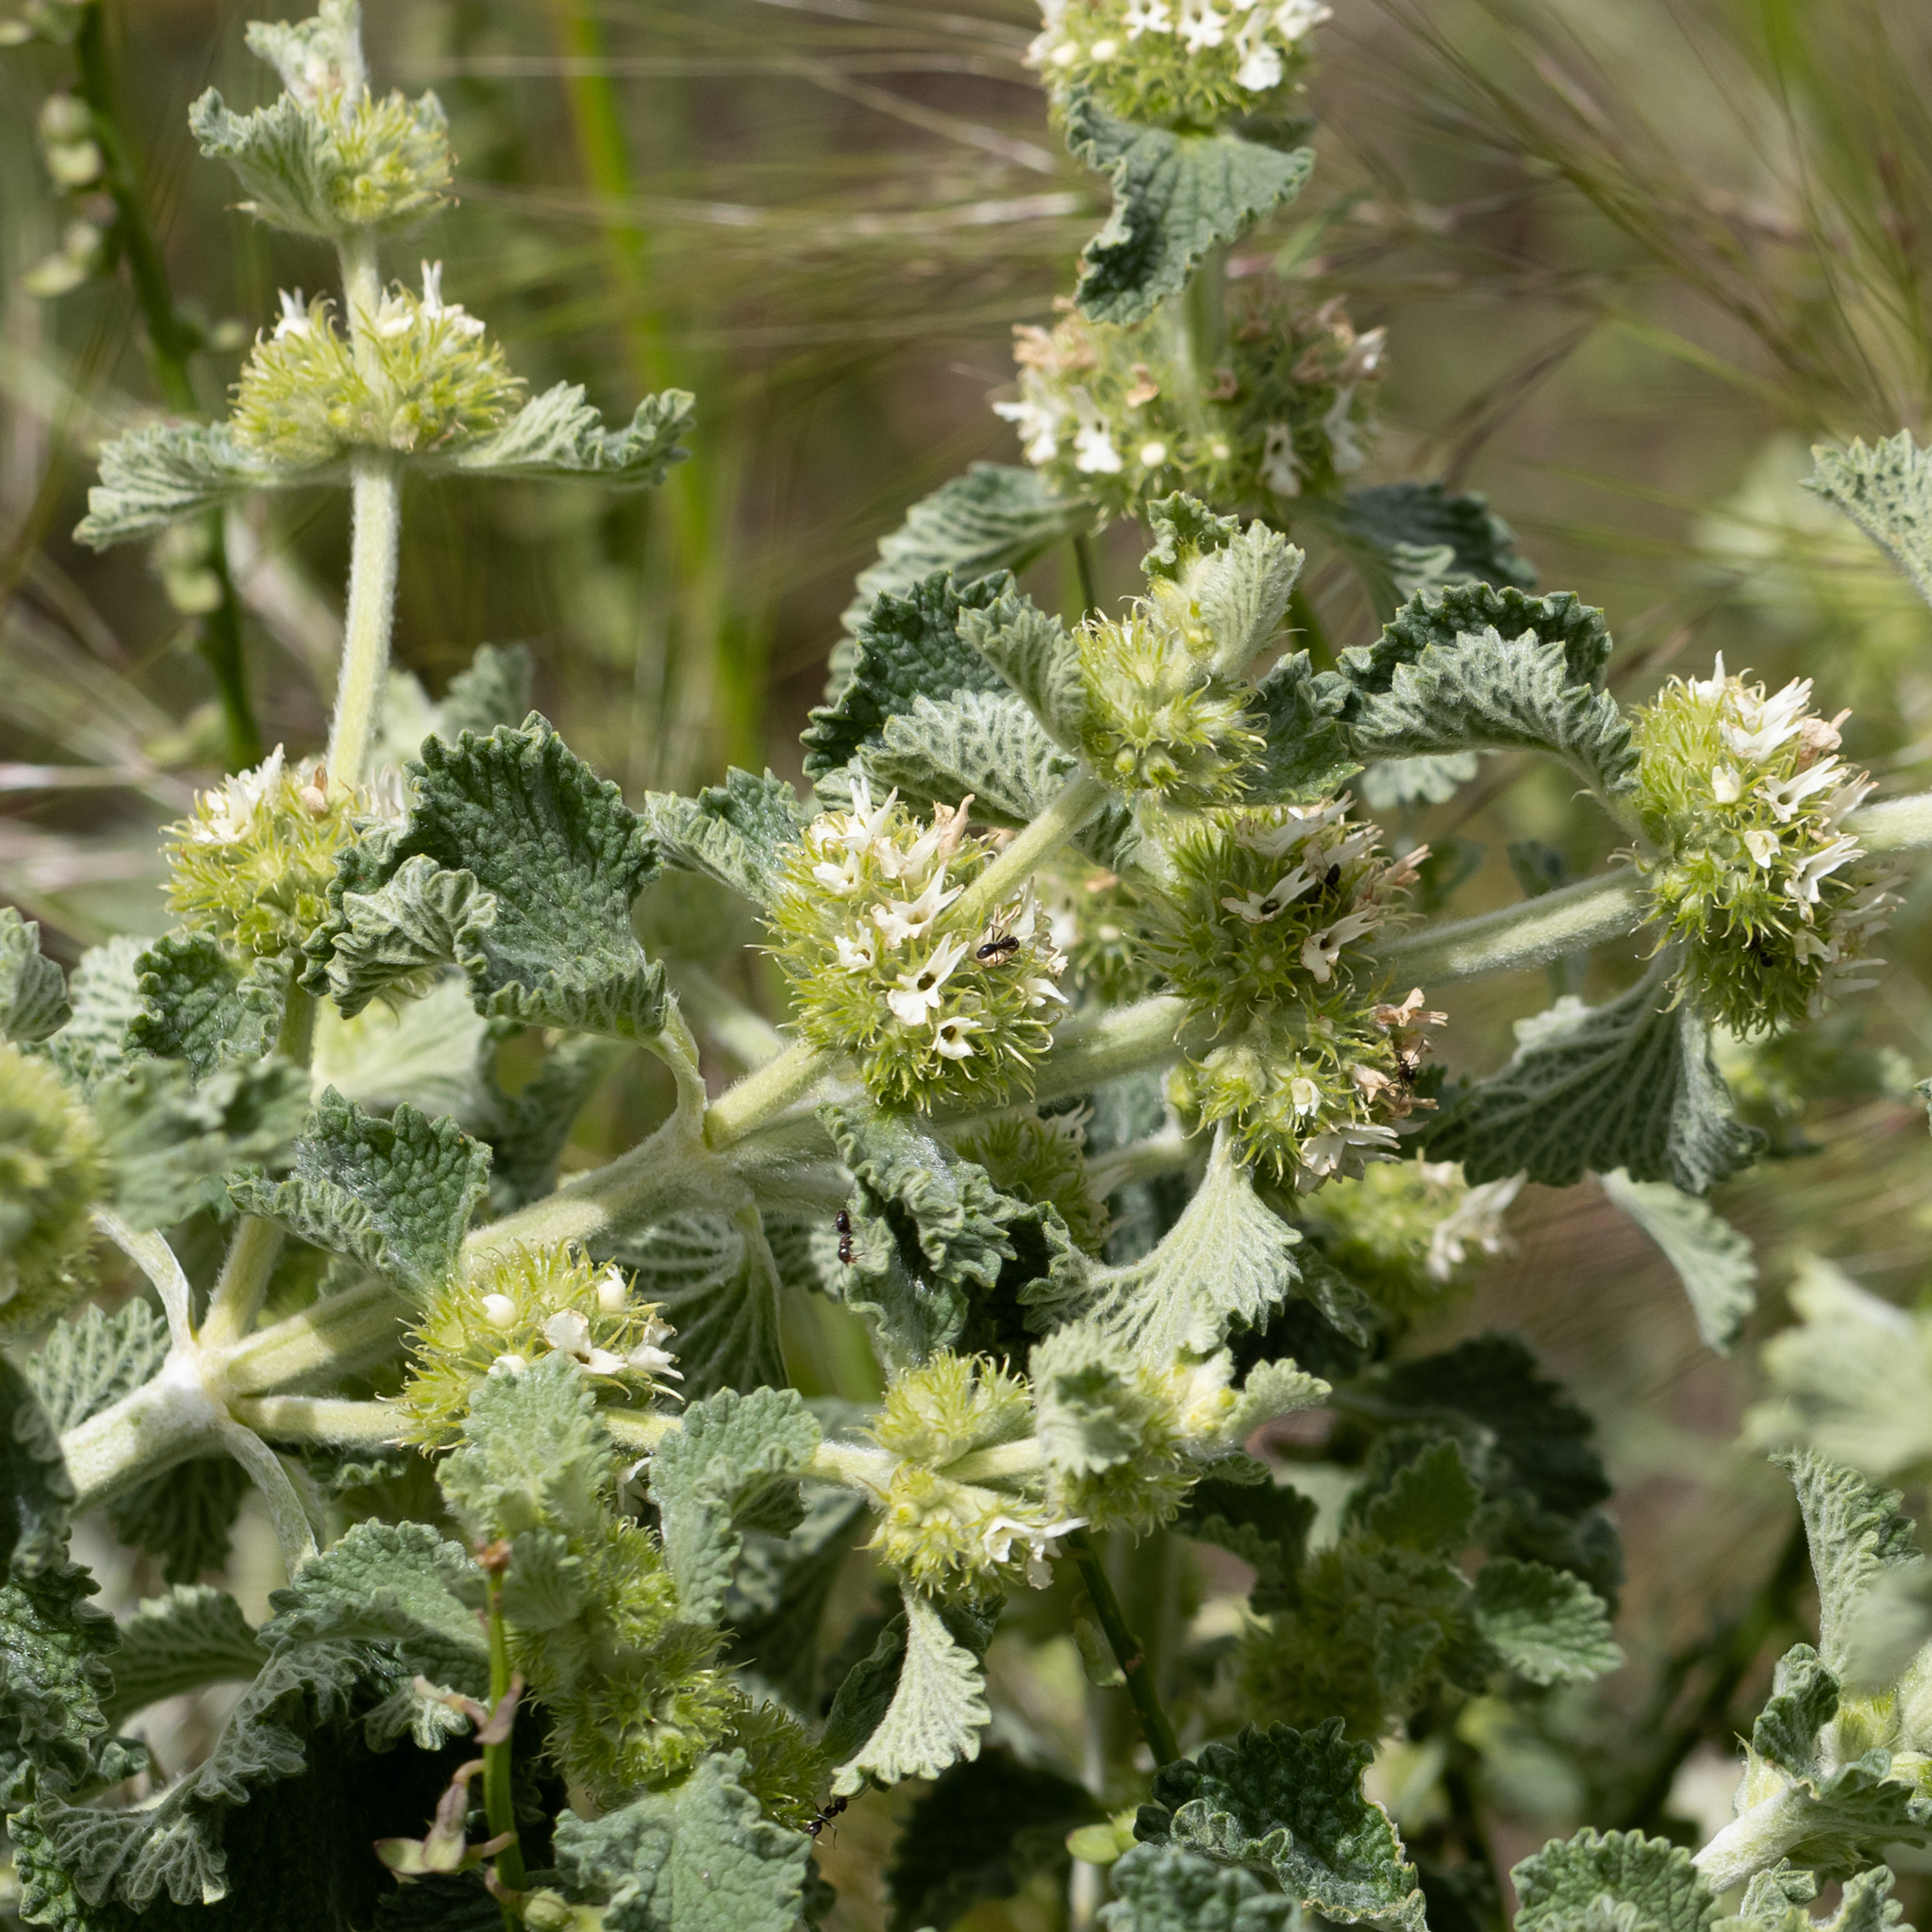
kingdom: Plantae
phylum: Tracheophyta
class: Magnoliopsida
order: Lamiales
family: Lamiaceae
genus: Marrubium
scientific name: Marrubium vulgare
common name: Horehound
